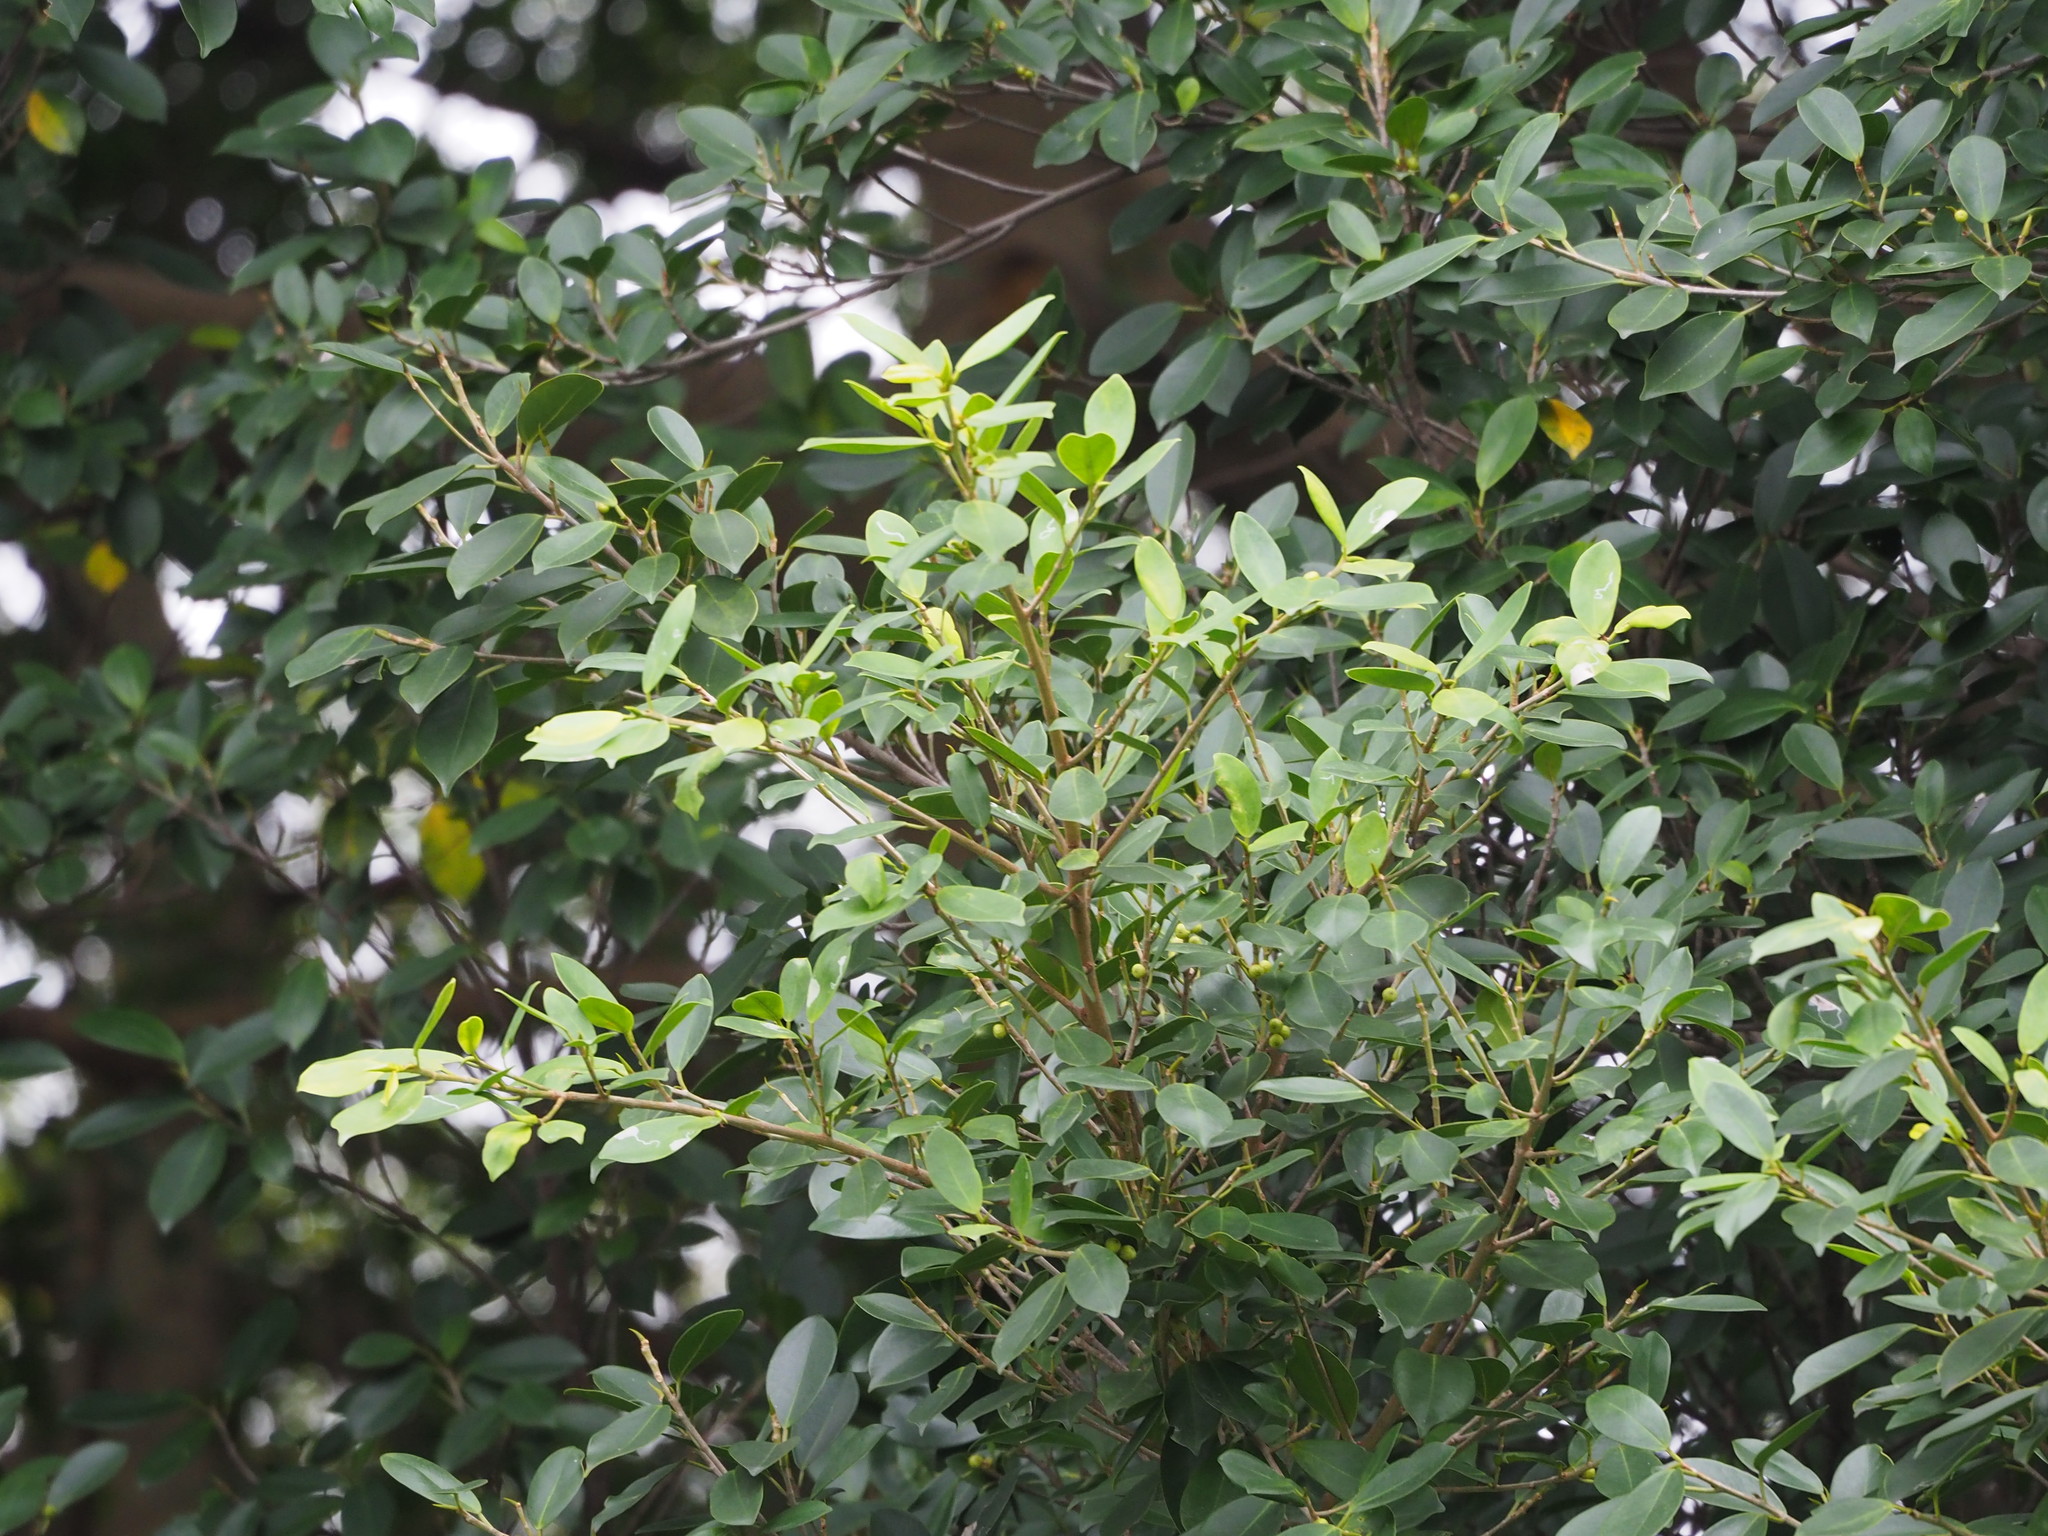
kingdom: Plantae
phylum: Tracheophyta
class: Magnoliopsida
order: Rosales
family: Moraceae
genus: Ficus
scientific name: Ficus microcarpa
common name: Chinese banyan
